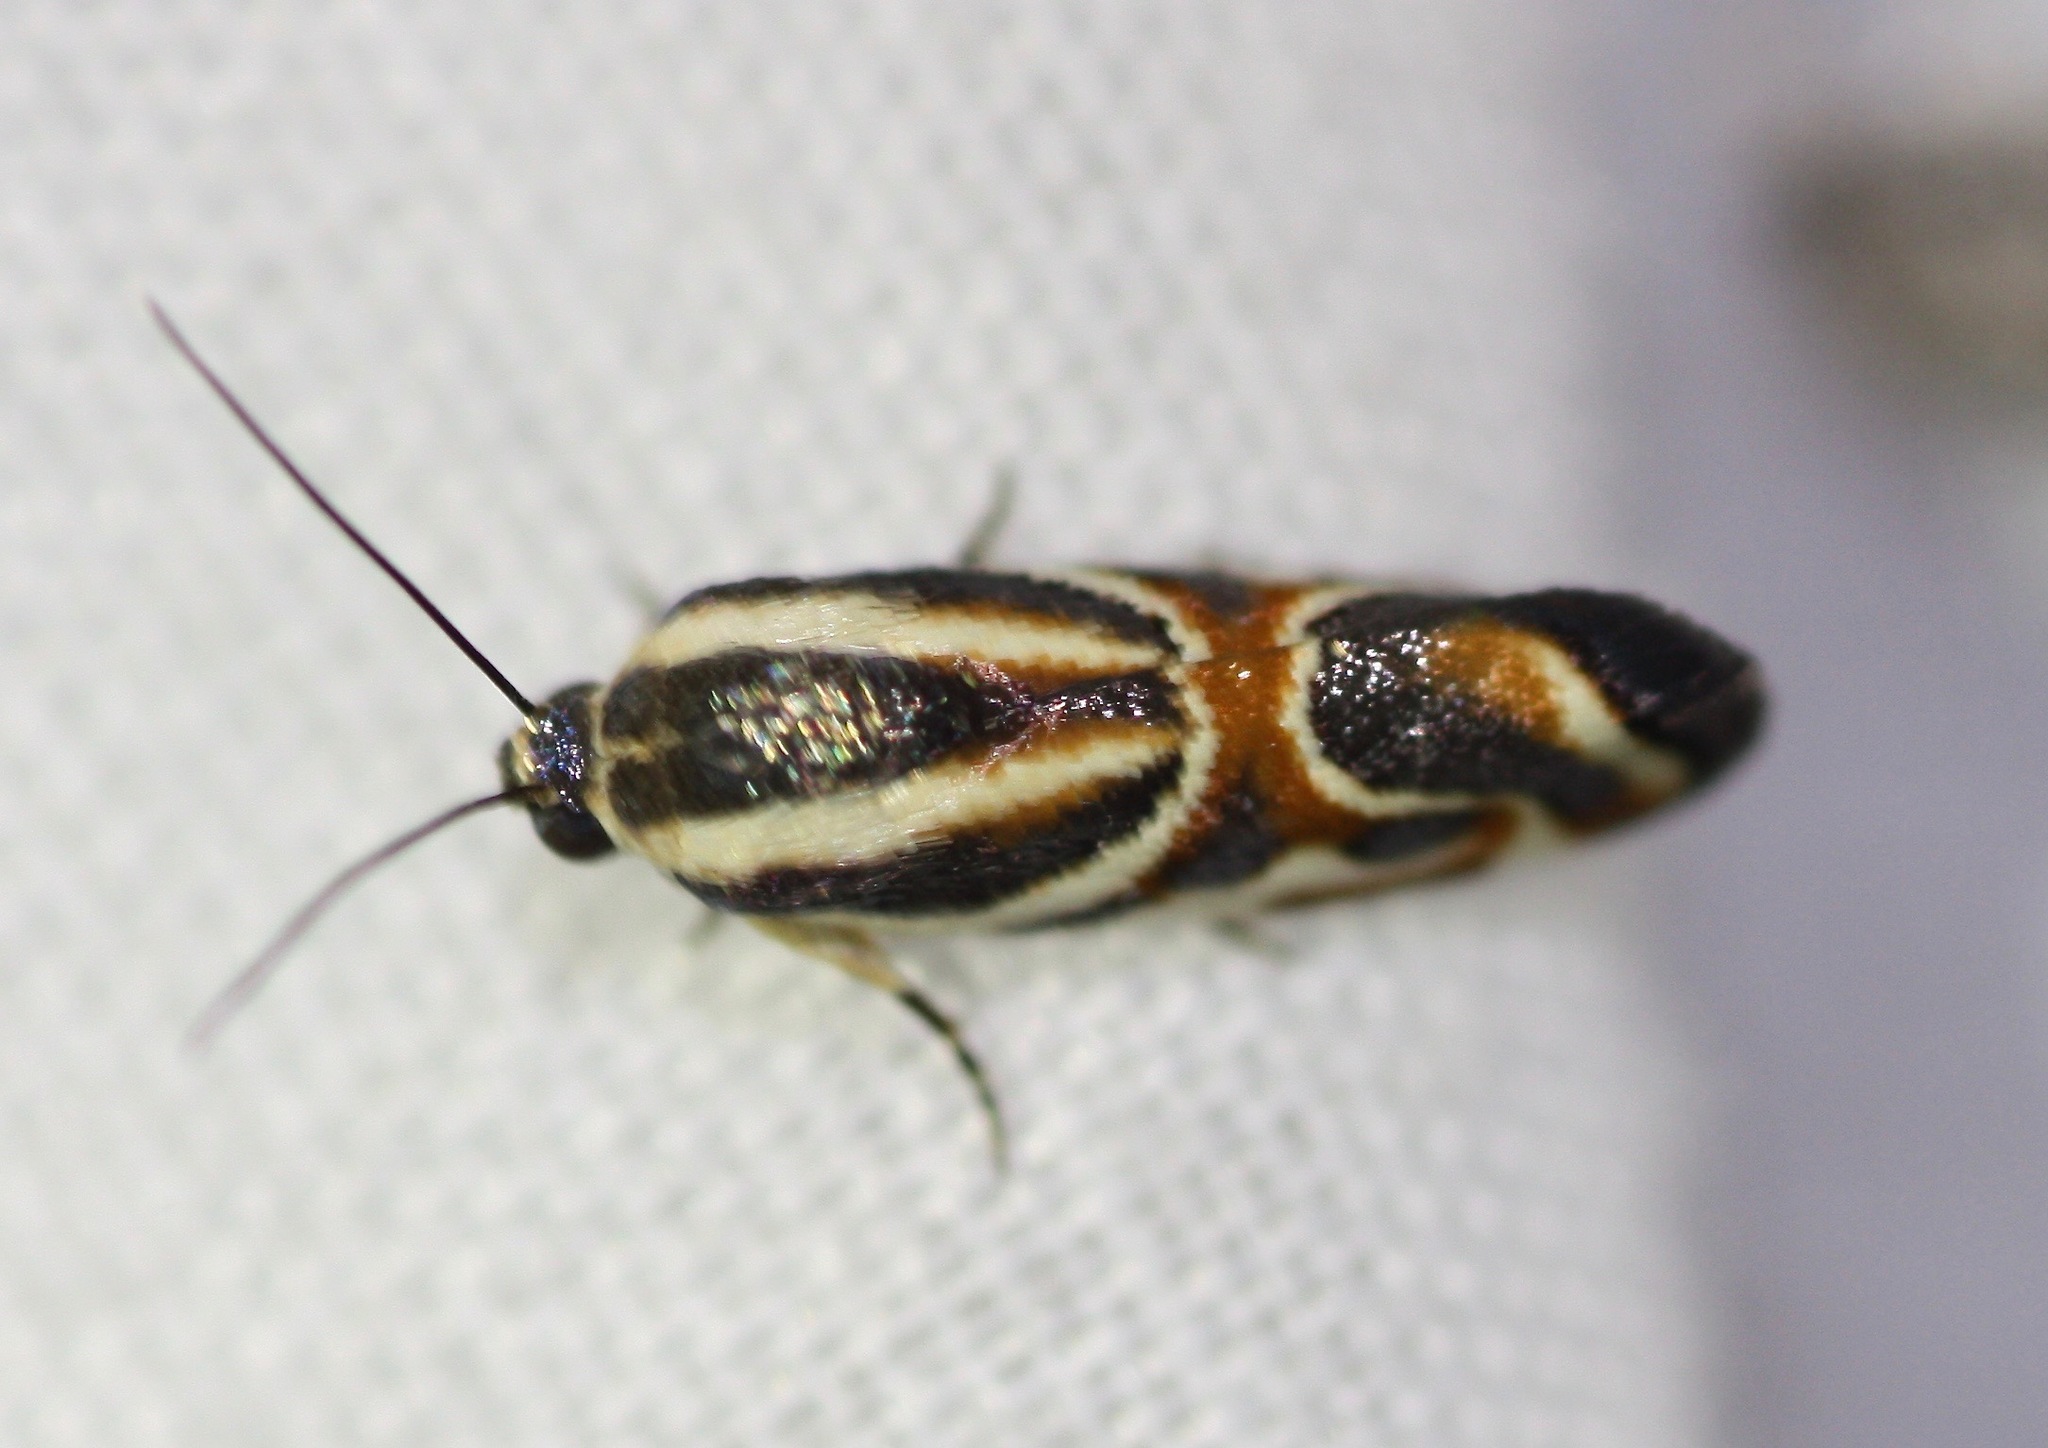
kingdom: Animalia
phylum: Arthropoda
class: Insecta
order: Lepidoptera
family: Noctuidae
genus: Spragueia
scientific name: Spragueia magnifica
